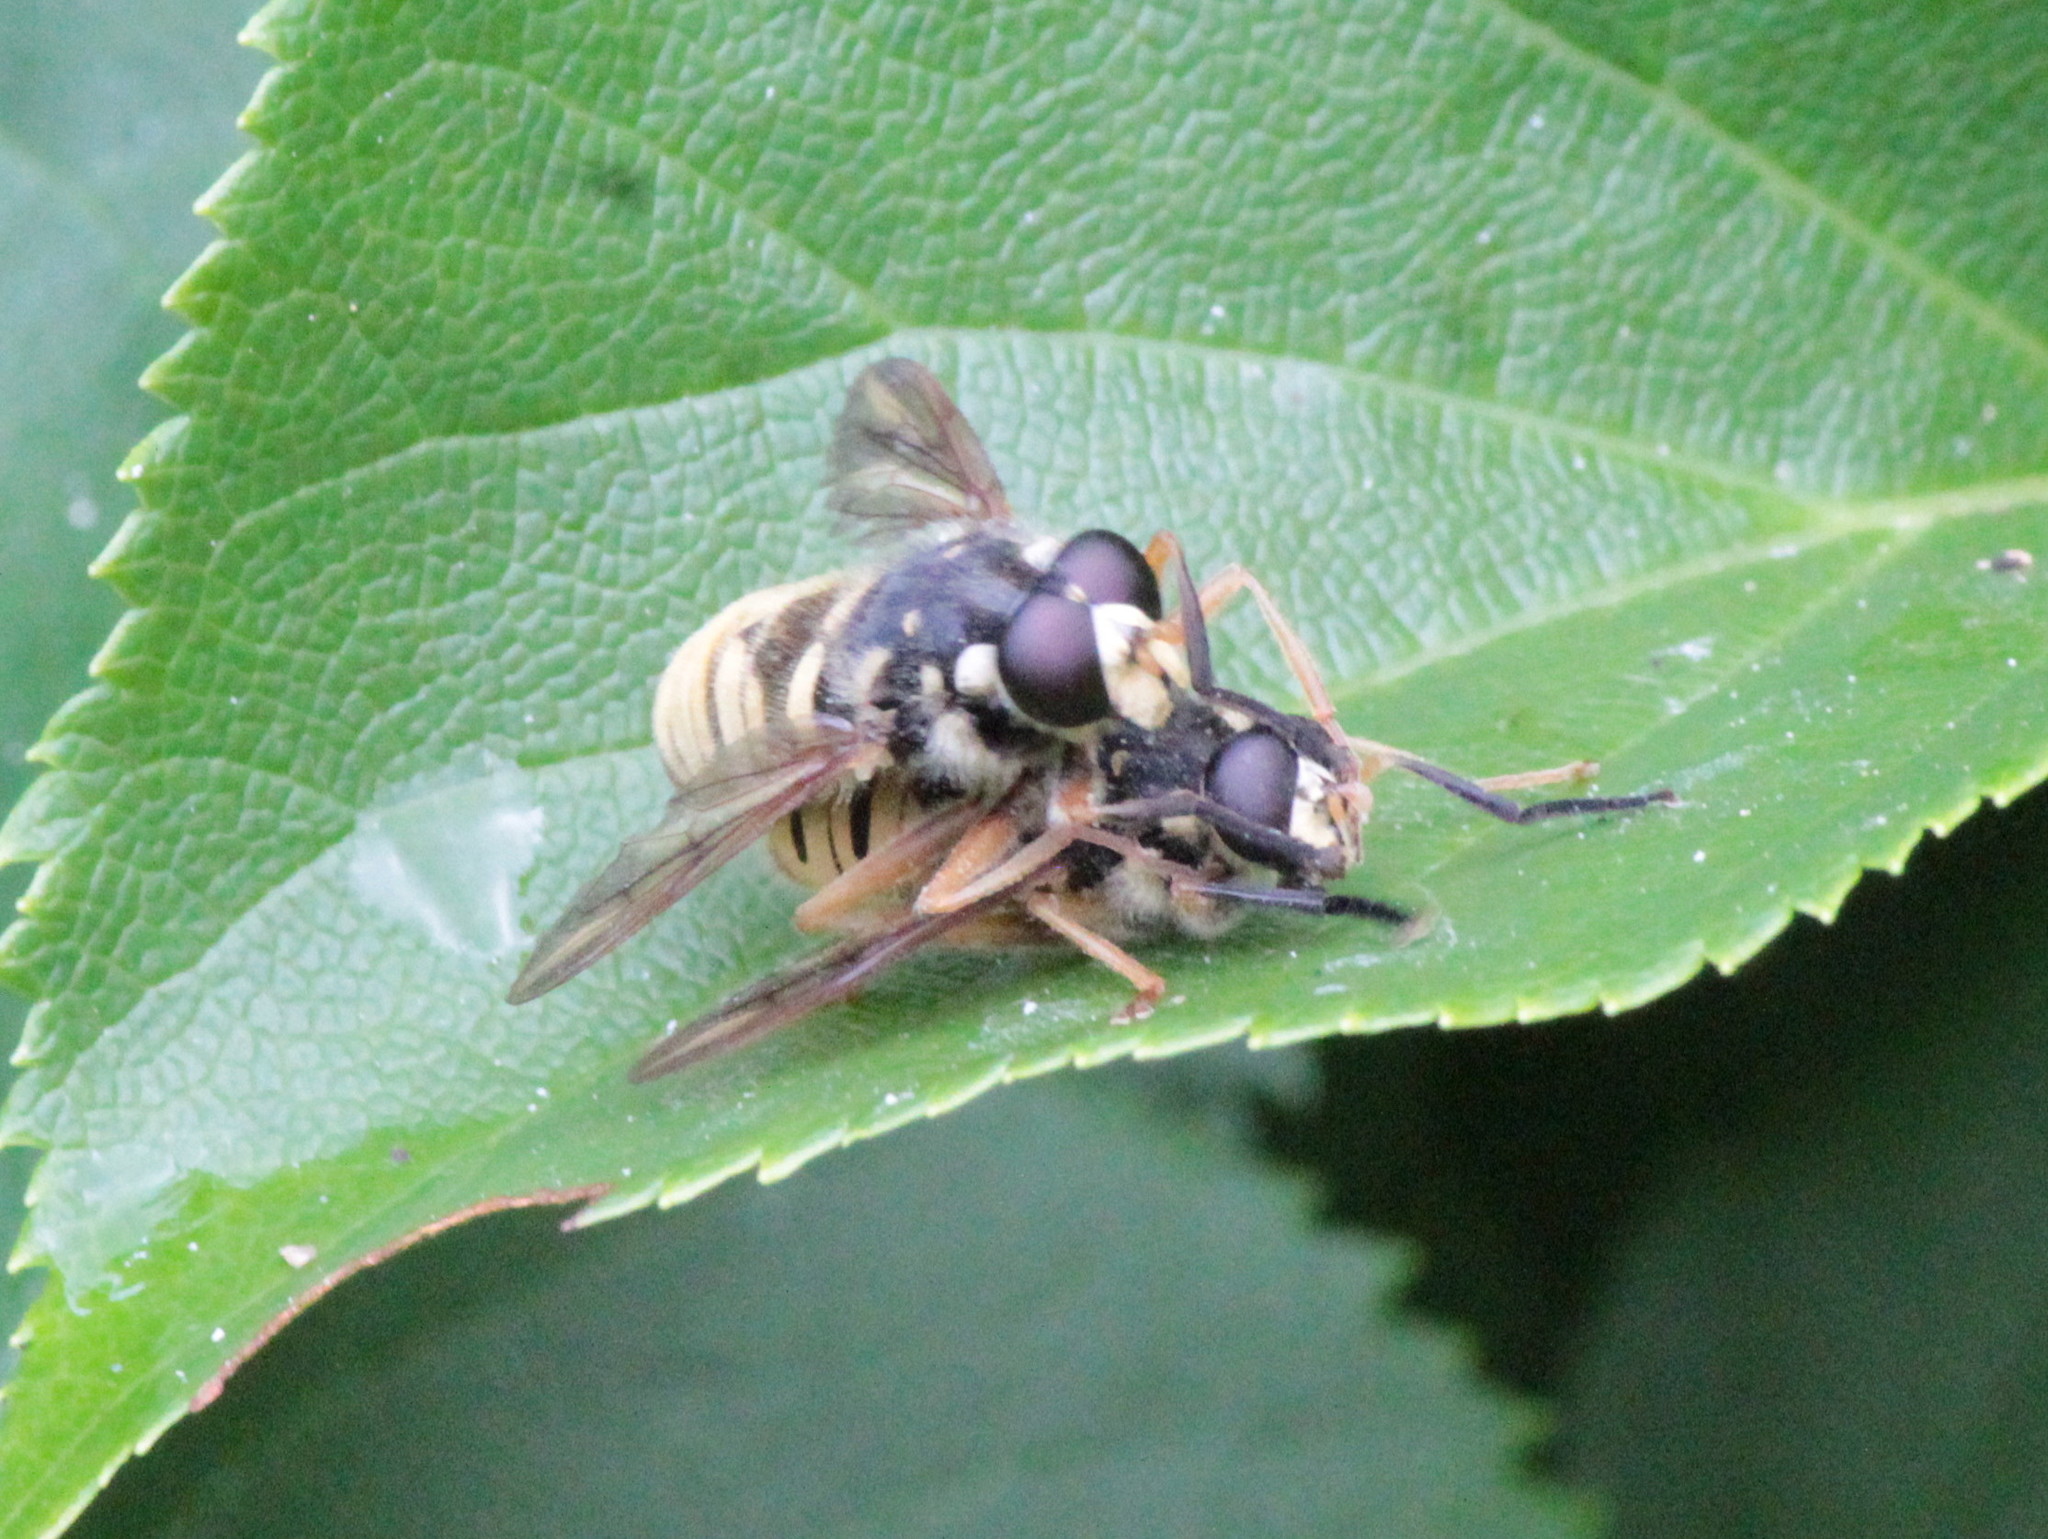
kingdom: Animalia
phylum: Arthropoda
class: Insecta
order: Diptera
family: Syrphidae
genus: Temnostoma
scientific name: Temnostoma alternans
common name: Wasp-like falsehorn
